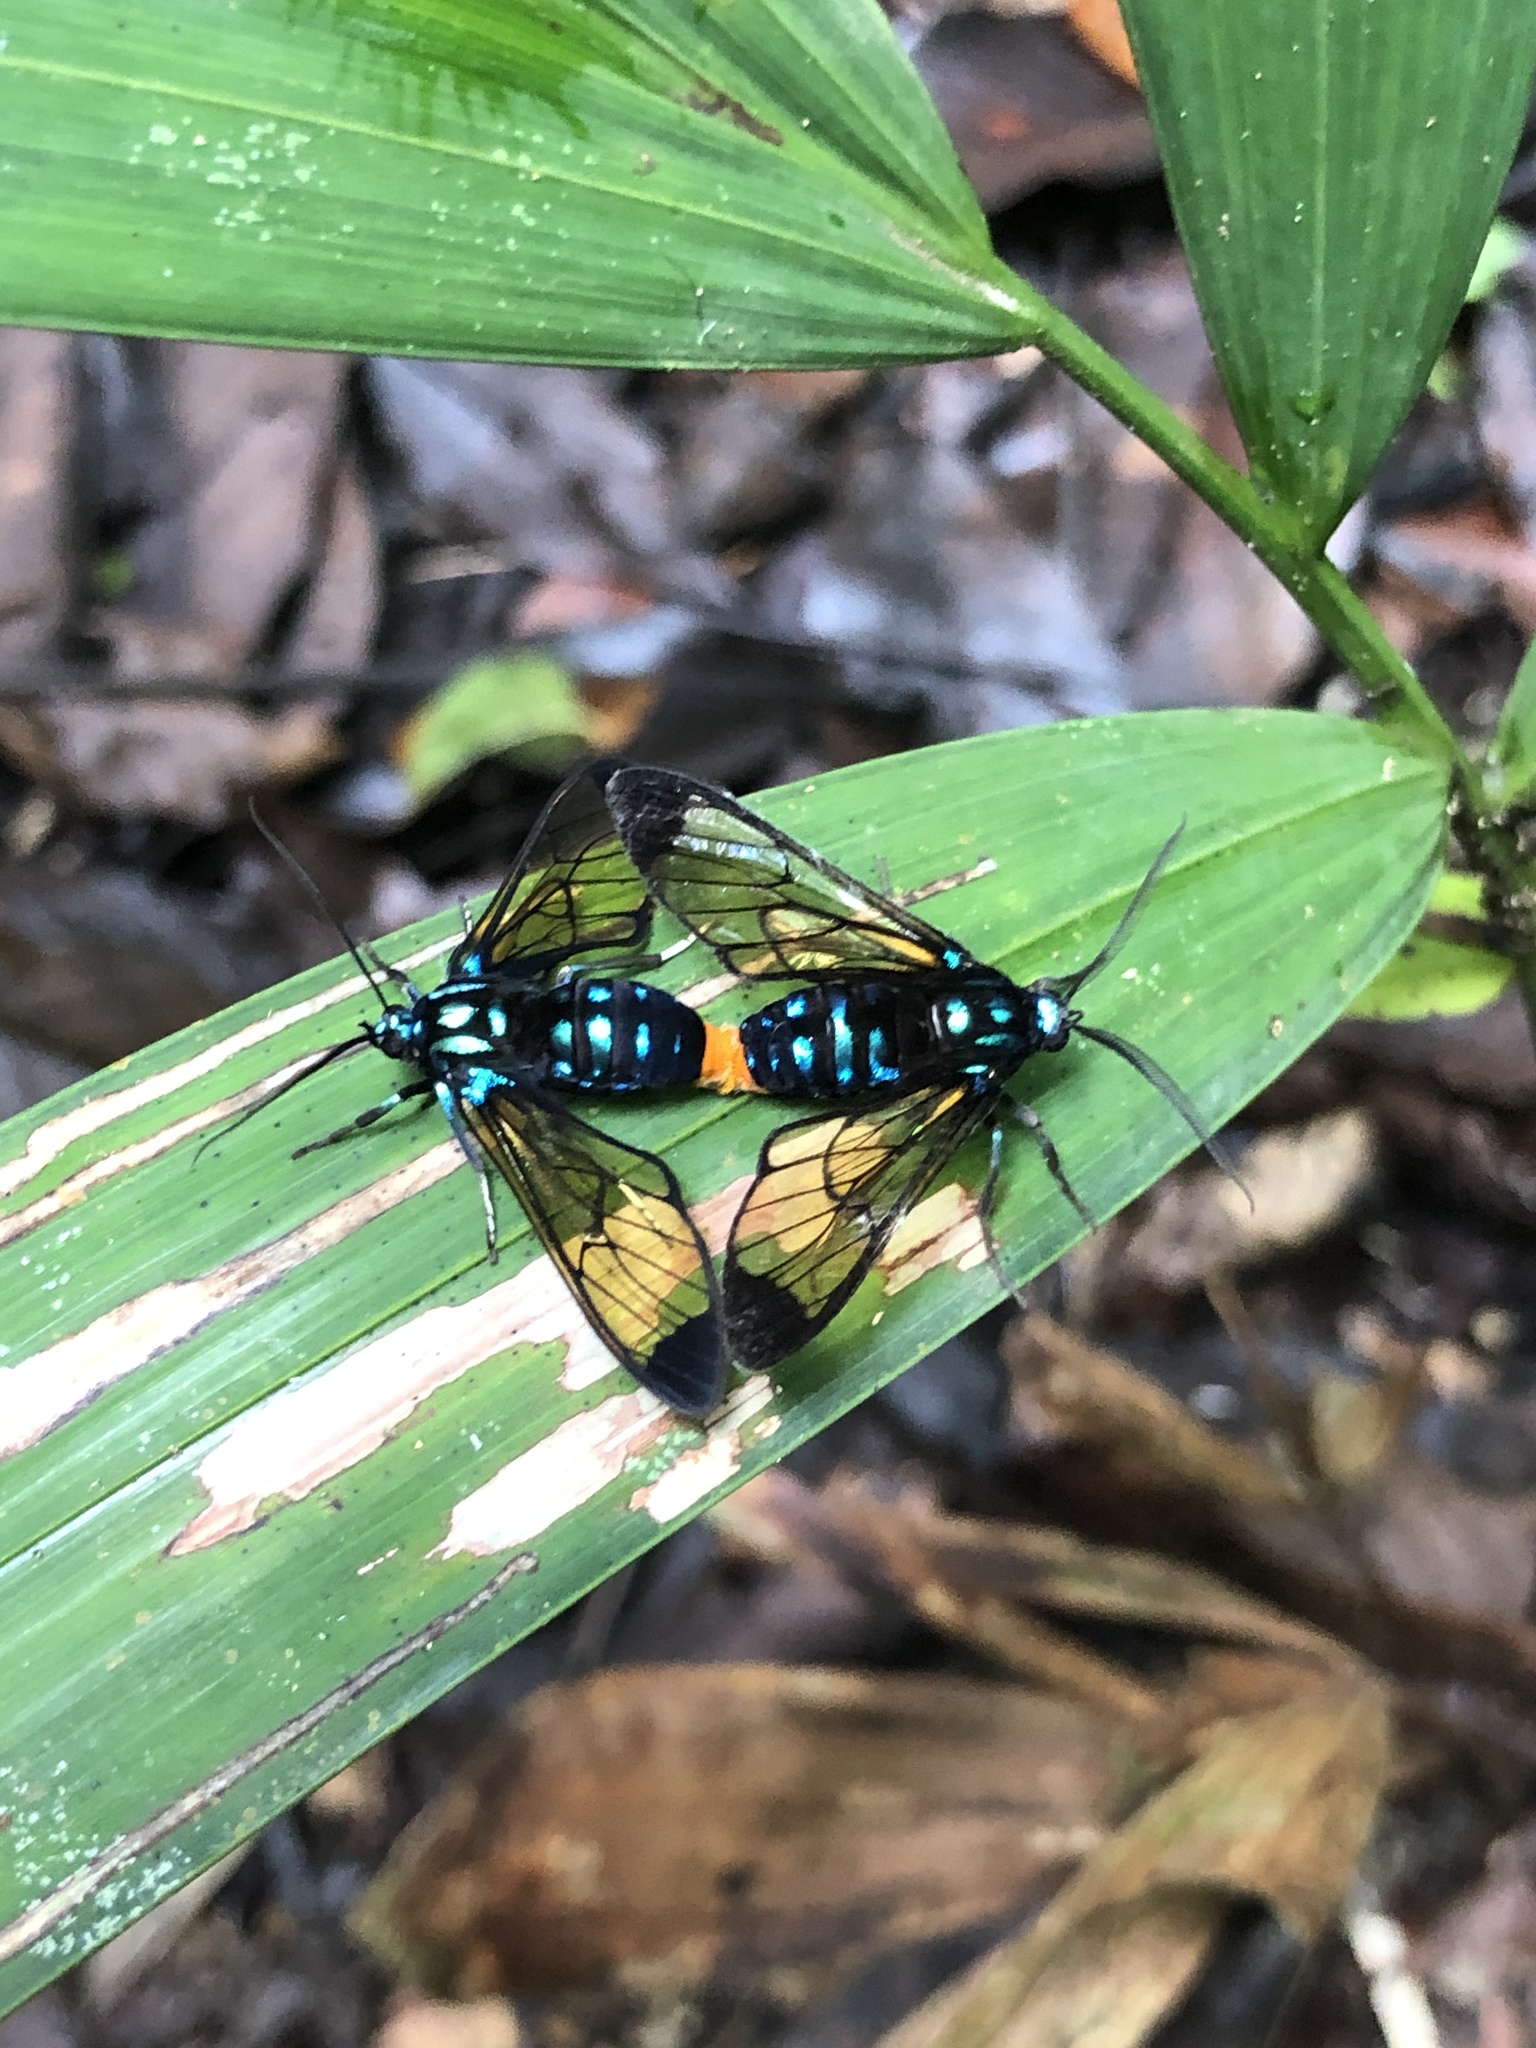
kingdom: Animalia
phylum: Arthropoda
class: Insecta
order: Lepidoptera
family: Erebidae
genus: Gymnelia
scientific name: Gymnelia salvini
